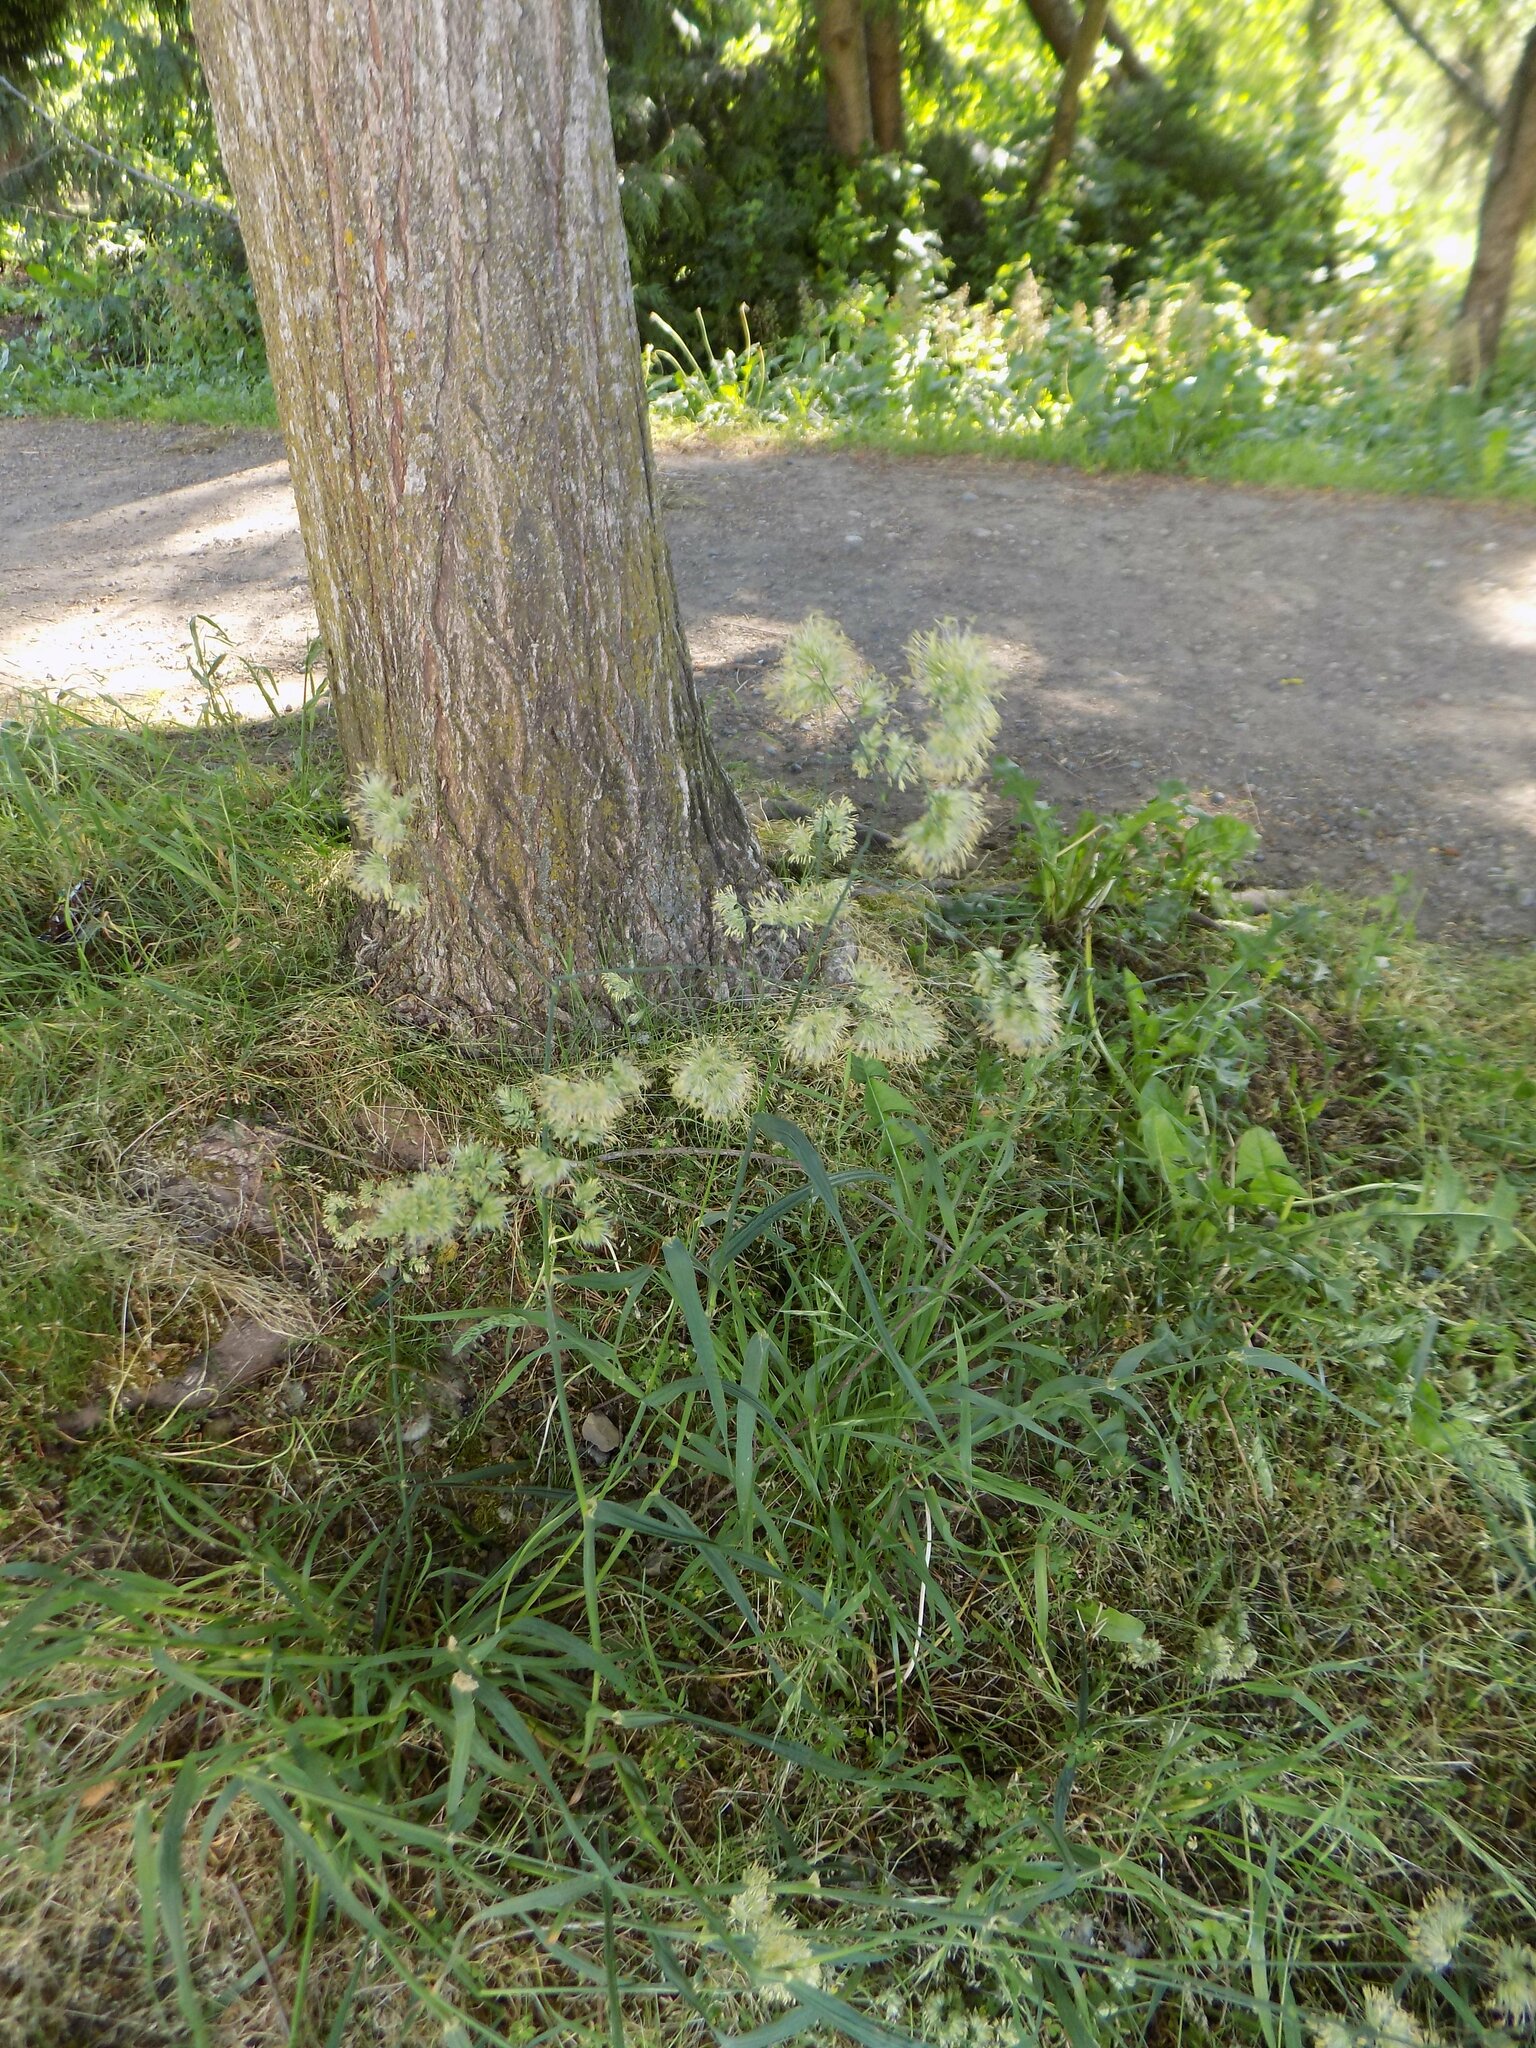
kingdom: Plantae
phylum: Tracheophyta
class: Liliopsida
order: Poales
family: Poaceae
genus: Dactylis
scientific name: Dactylis glomerata
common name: Orchardgrass
